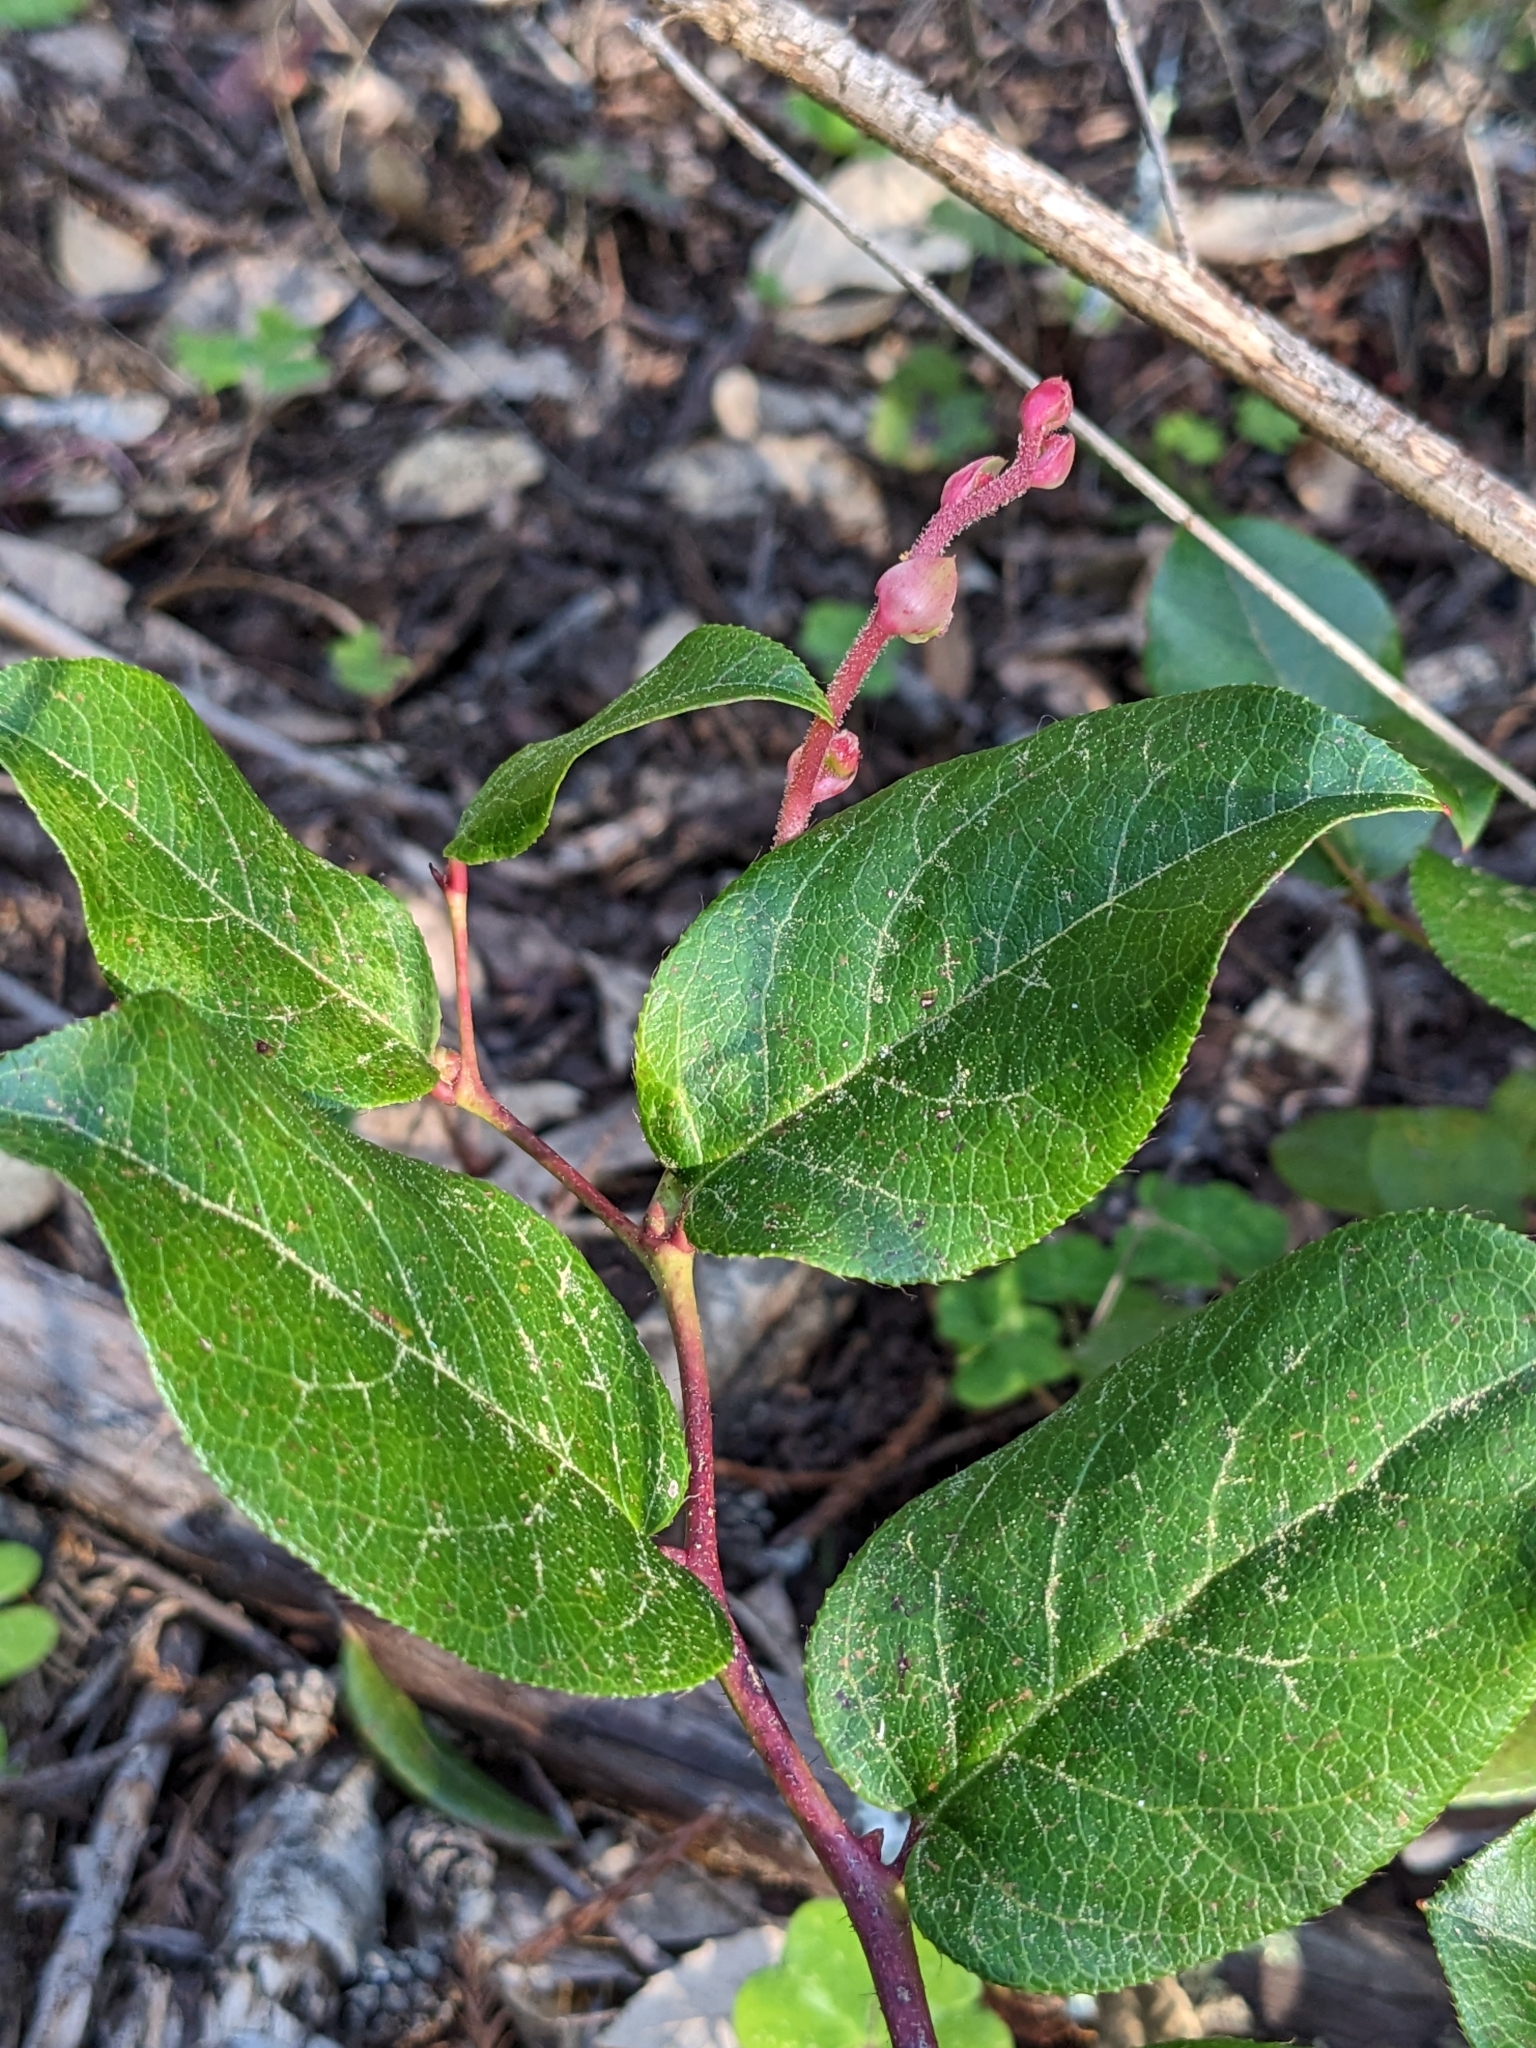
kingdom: Plantae
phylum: Tracheophyta
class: Magnoliopsida
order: Ericales
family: Ericaceae
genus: Gaultheria
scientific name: Gaultheria shallon
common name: Shallon
